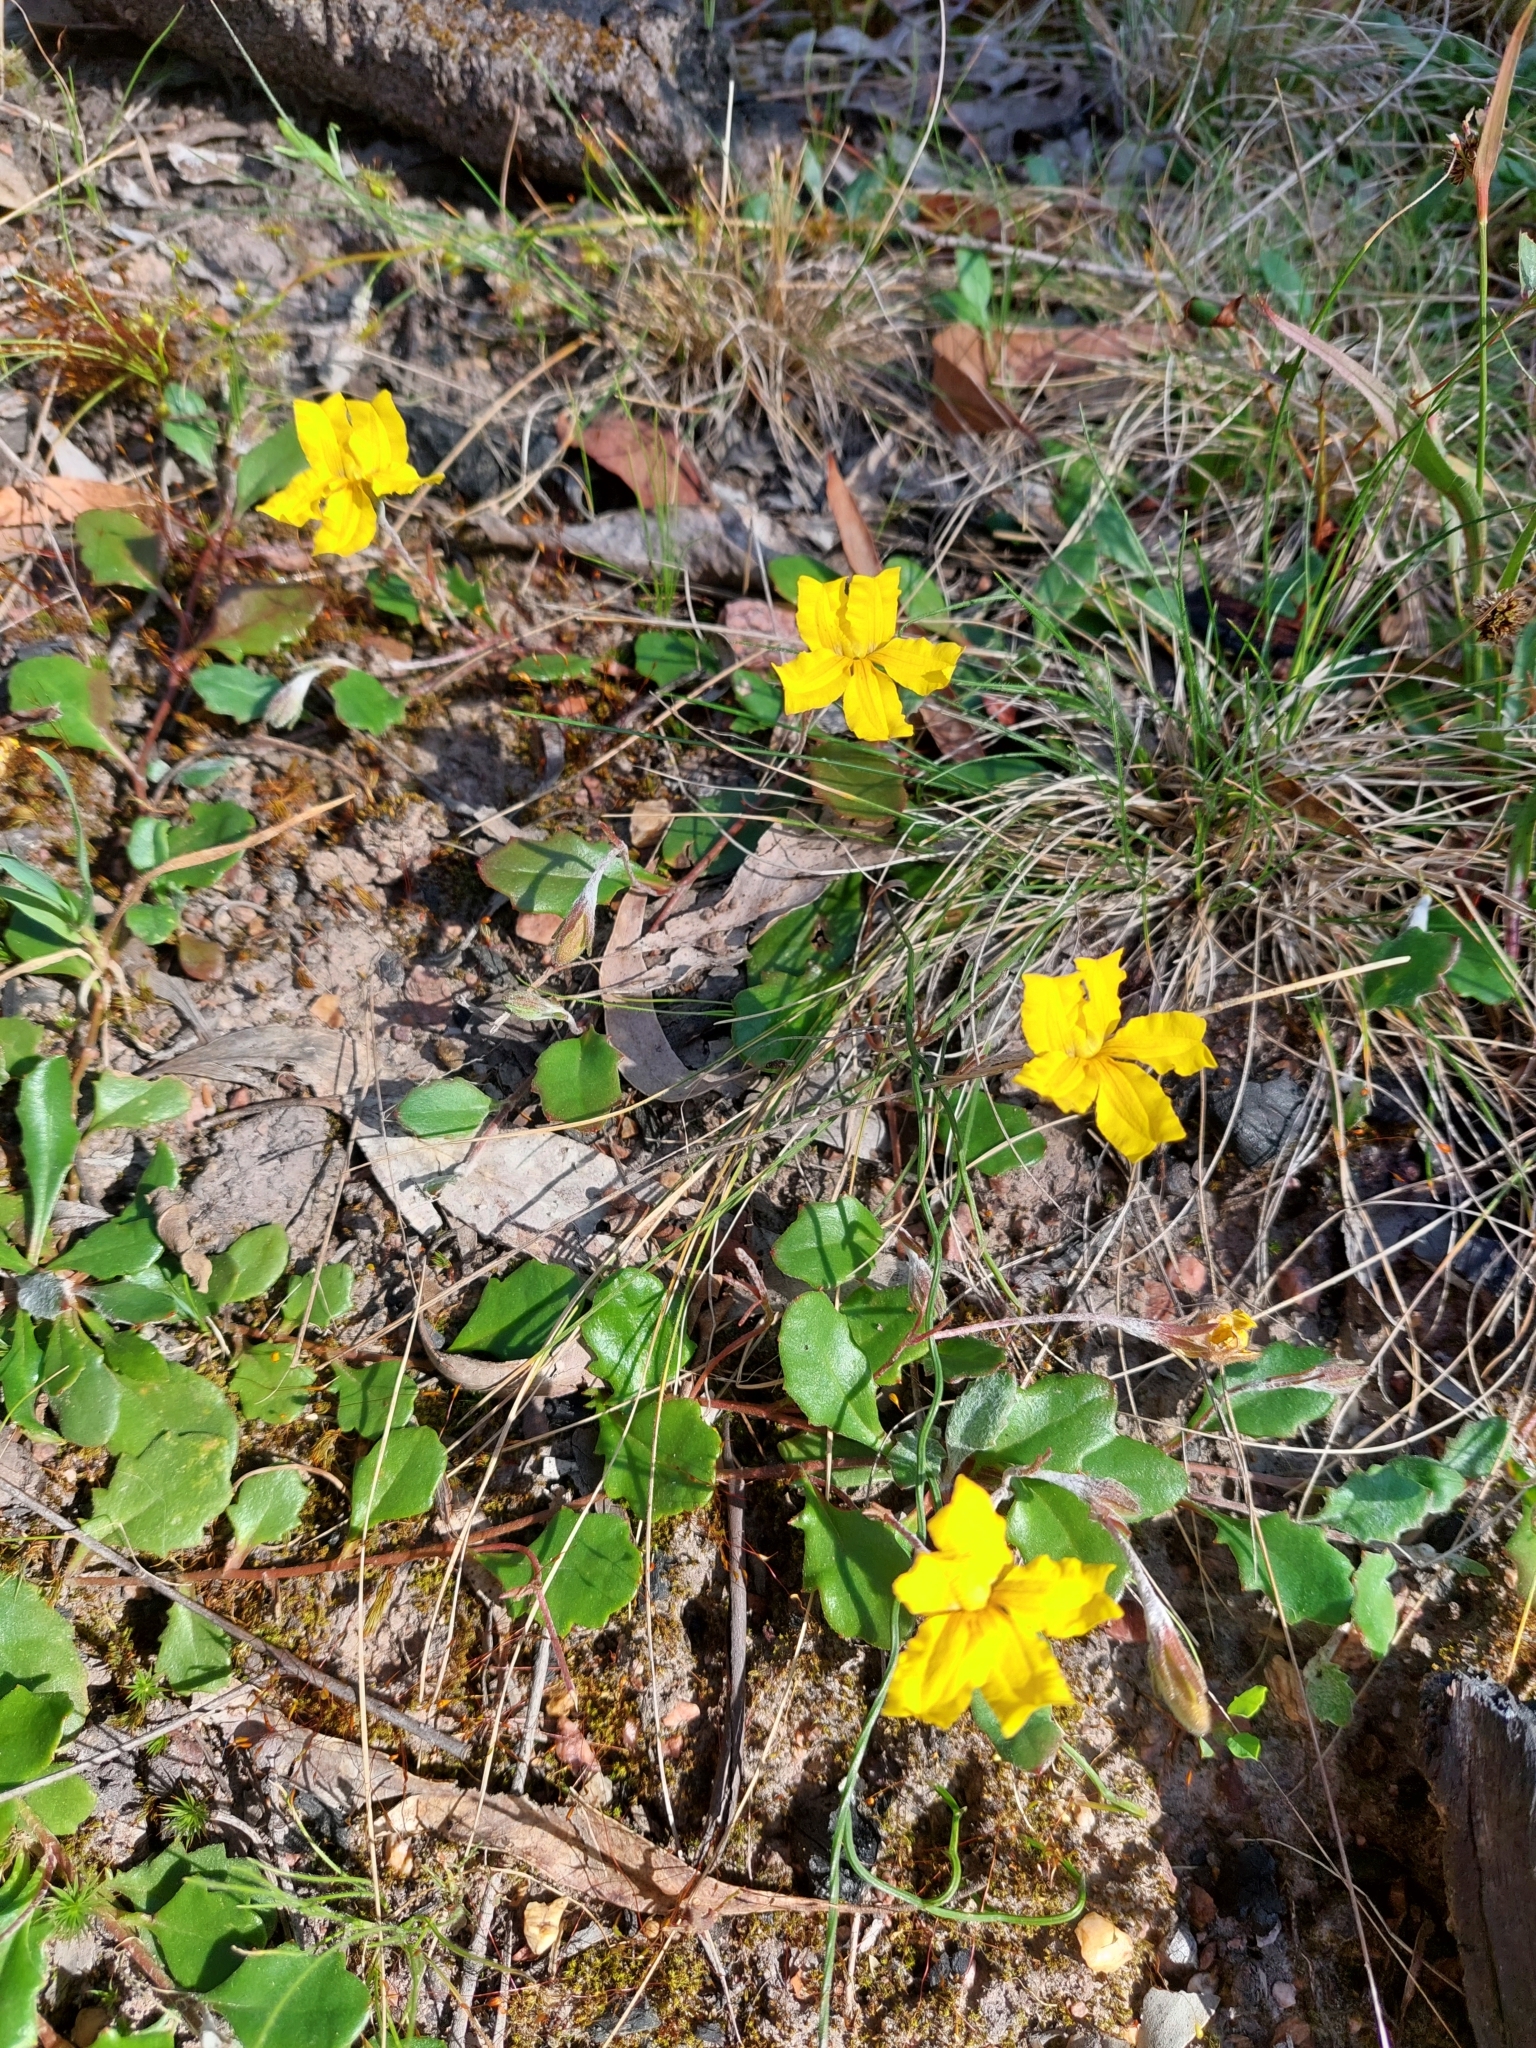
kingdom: Plantae
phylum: Tracheophyta
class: Magnoliopsida
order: Asterales
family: Goodeniaceae
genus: Goodenia
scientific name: Goodenia lanata
